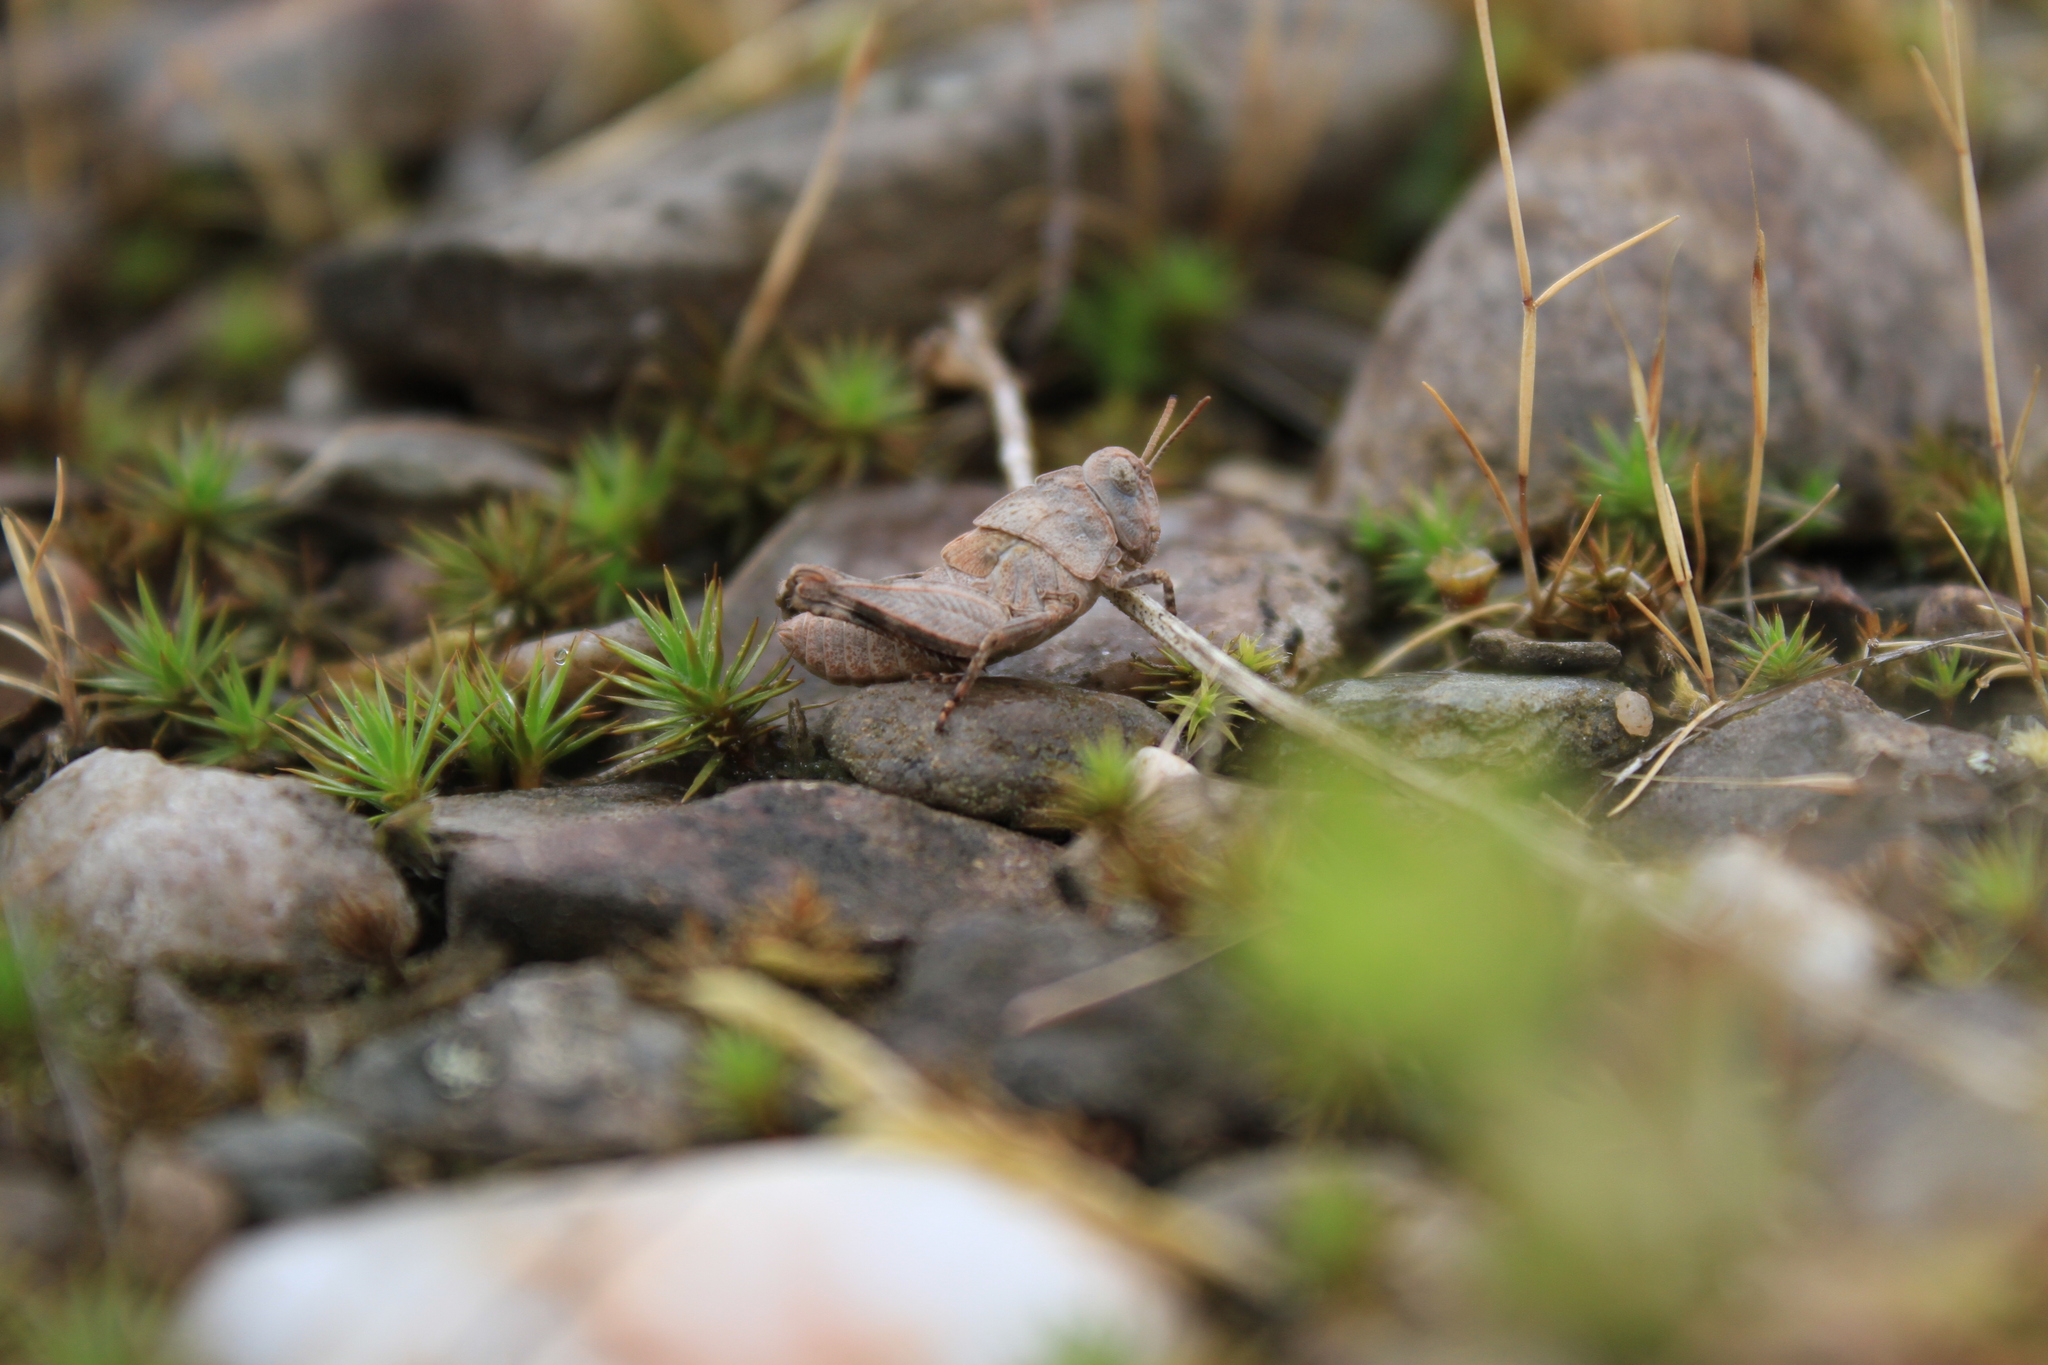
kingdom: Animalia
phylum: Arthropoda
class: Insecta
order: Orthoptera
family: Acrididae
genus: Oedipoda
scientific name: Oedipoda caerulescens
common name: Blue-winged grasshopper
